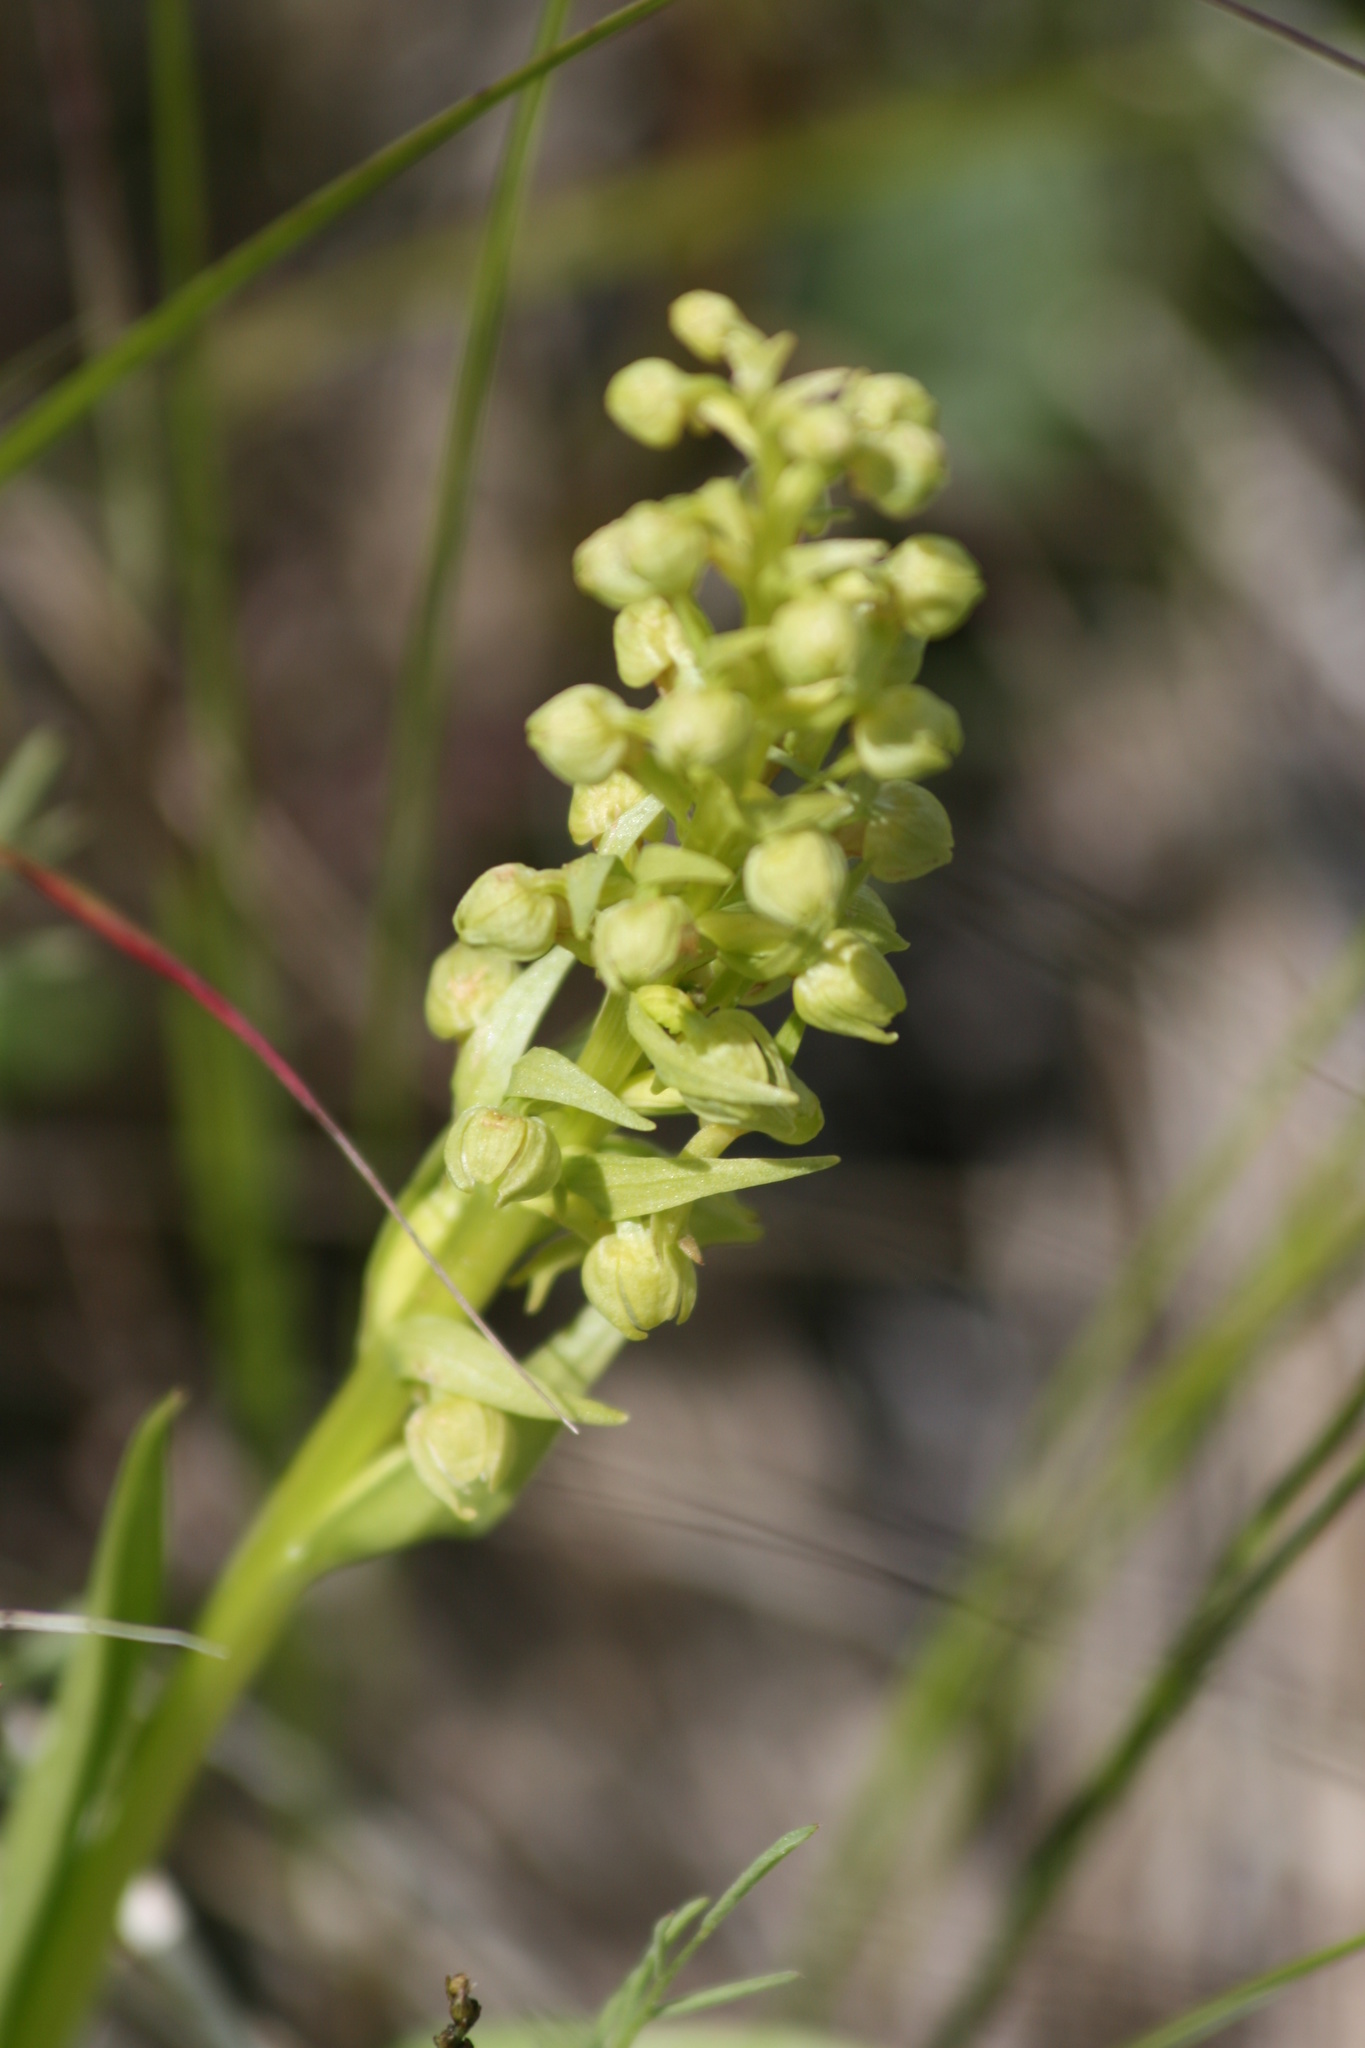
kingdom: Plantae
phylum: Tracheophyta
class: Liliopsida
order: Asparagales
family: Orchidaceae
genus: Dactylorhiza
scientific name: Dactylorhiza viridis
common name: Longbract frog orchid
